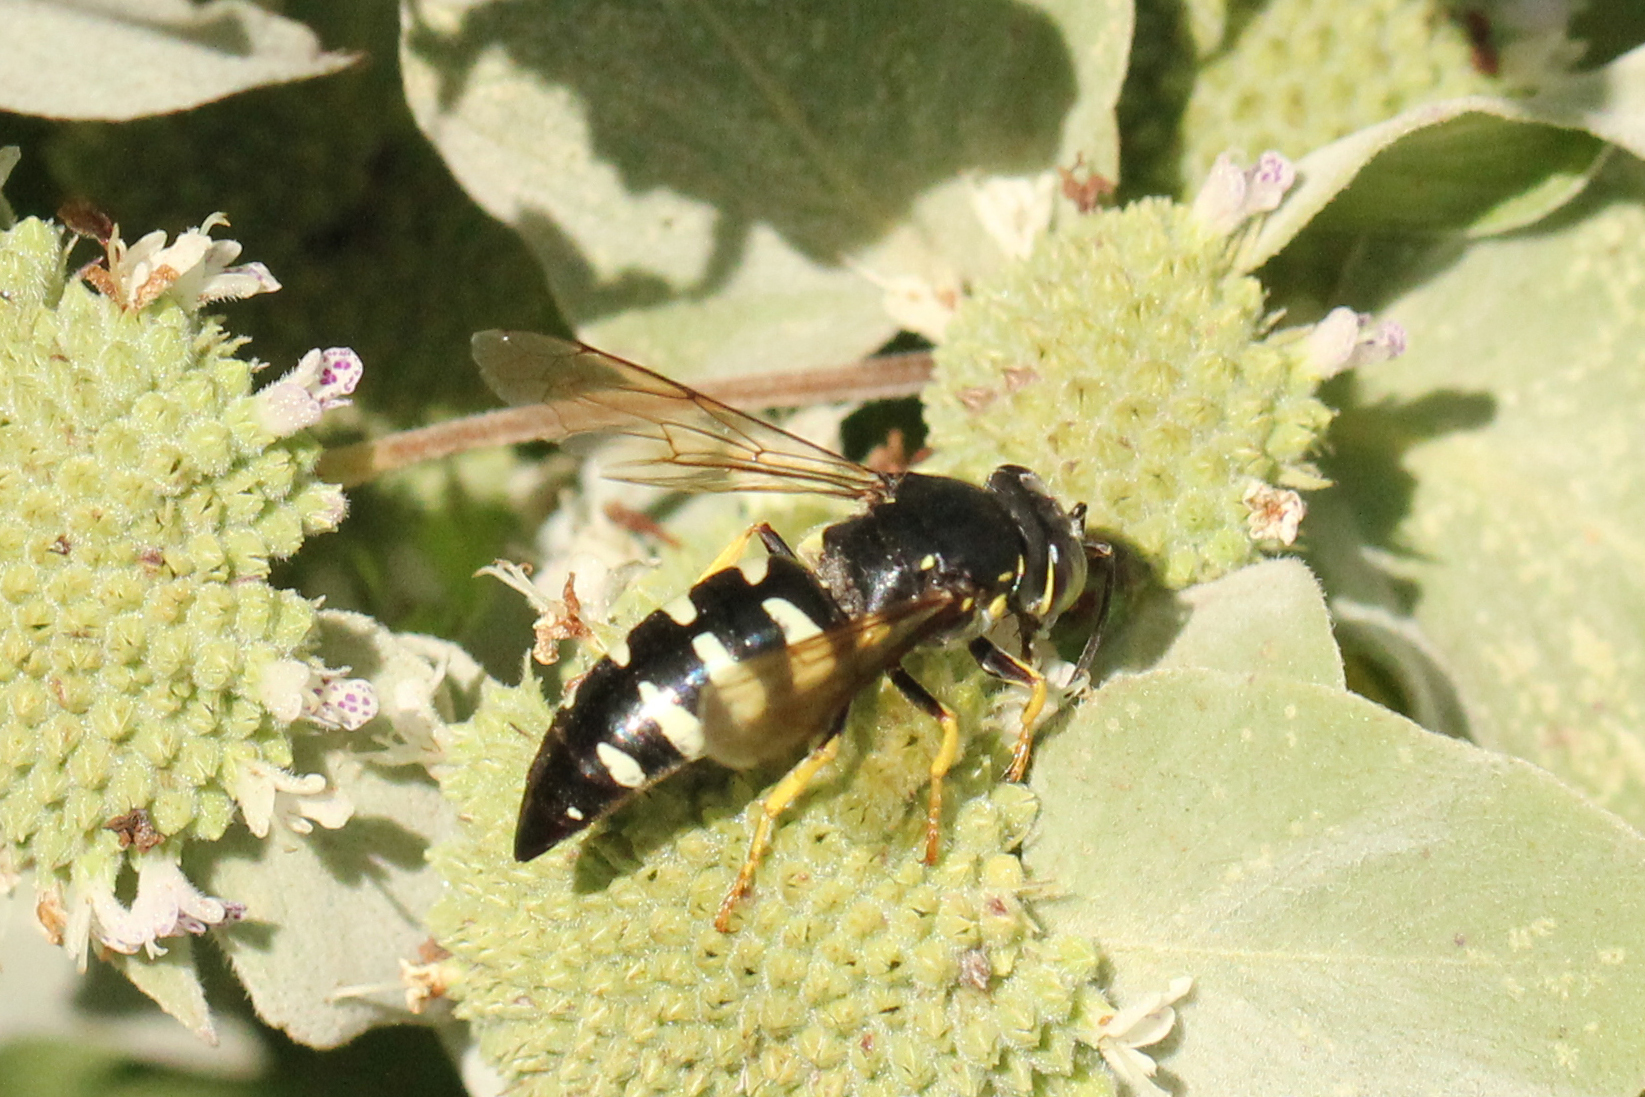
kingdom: Animalia
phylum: Arthropoda
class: Insecta
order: Hymenoptera
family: Crabronidae
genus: Bicyrtes
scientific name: Bicyrtes quadrifasciatus
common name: Four-banded stink bug hunter wasp
